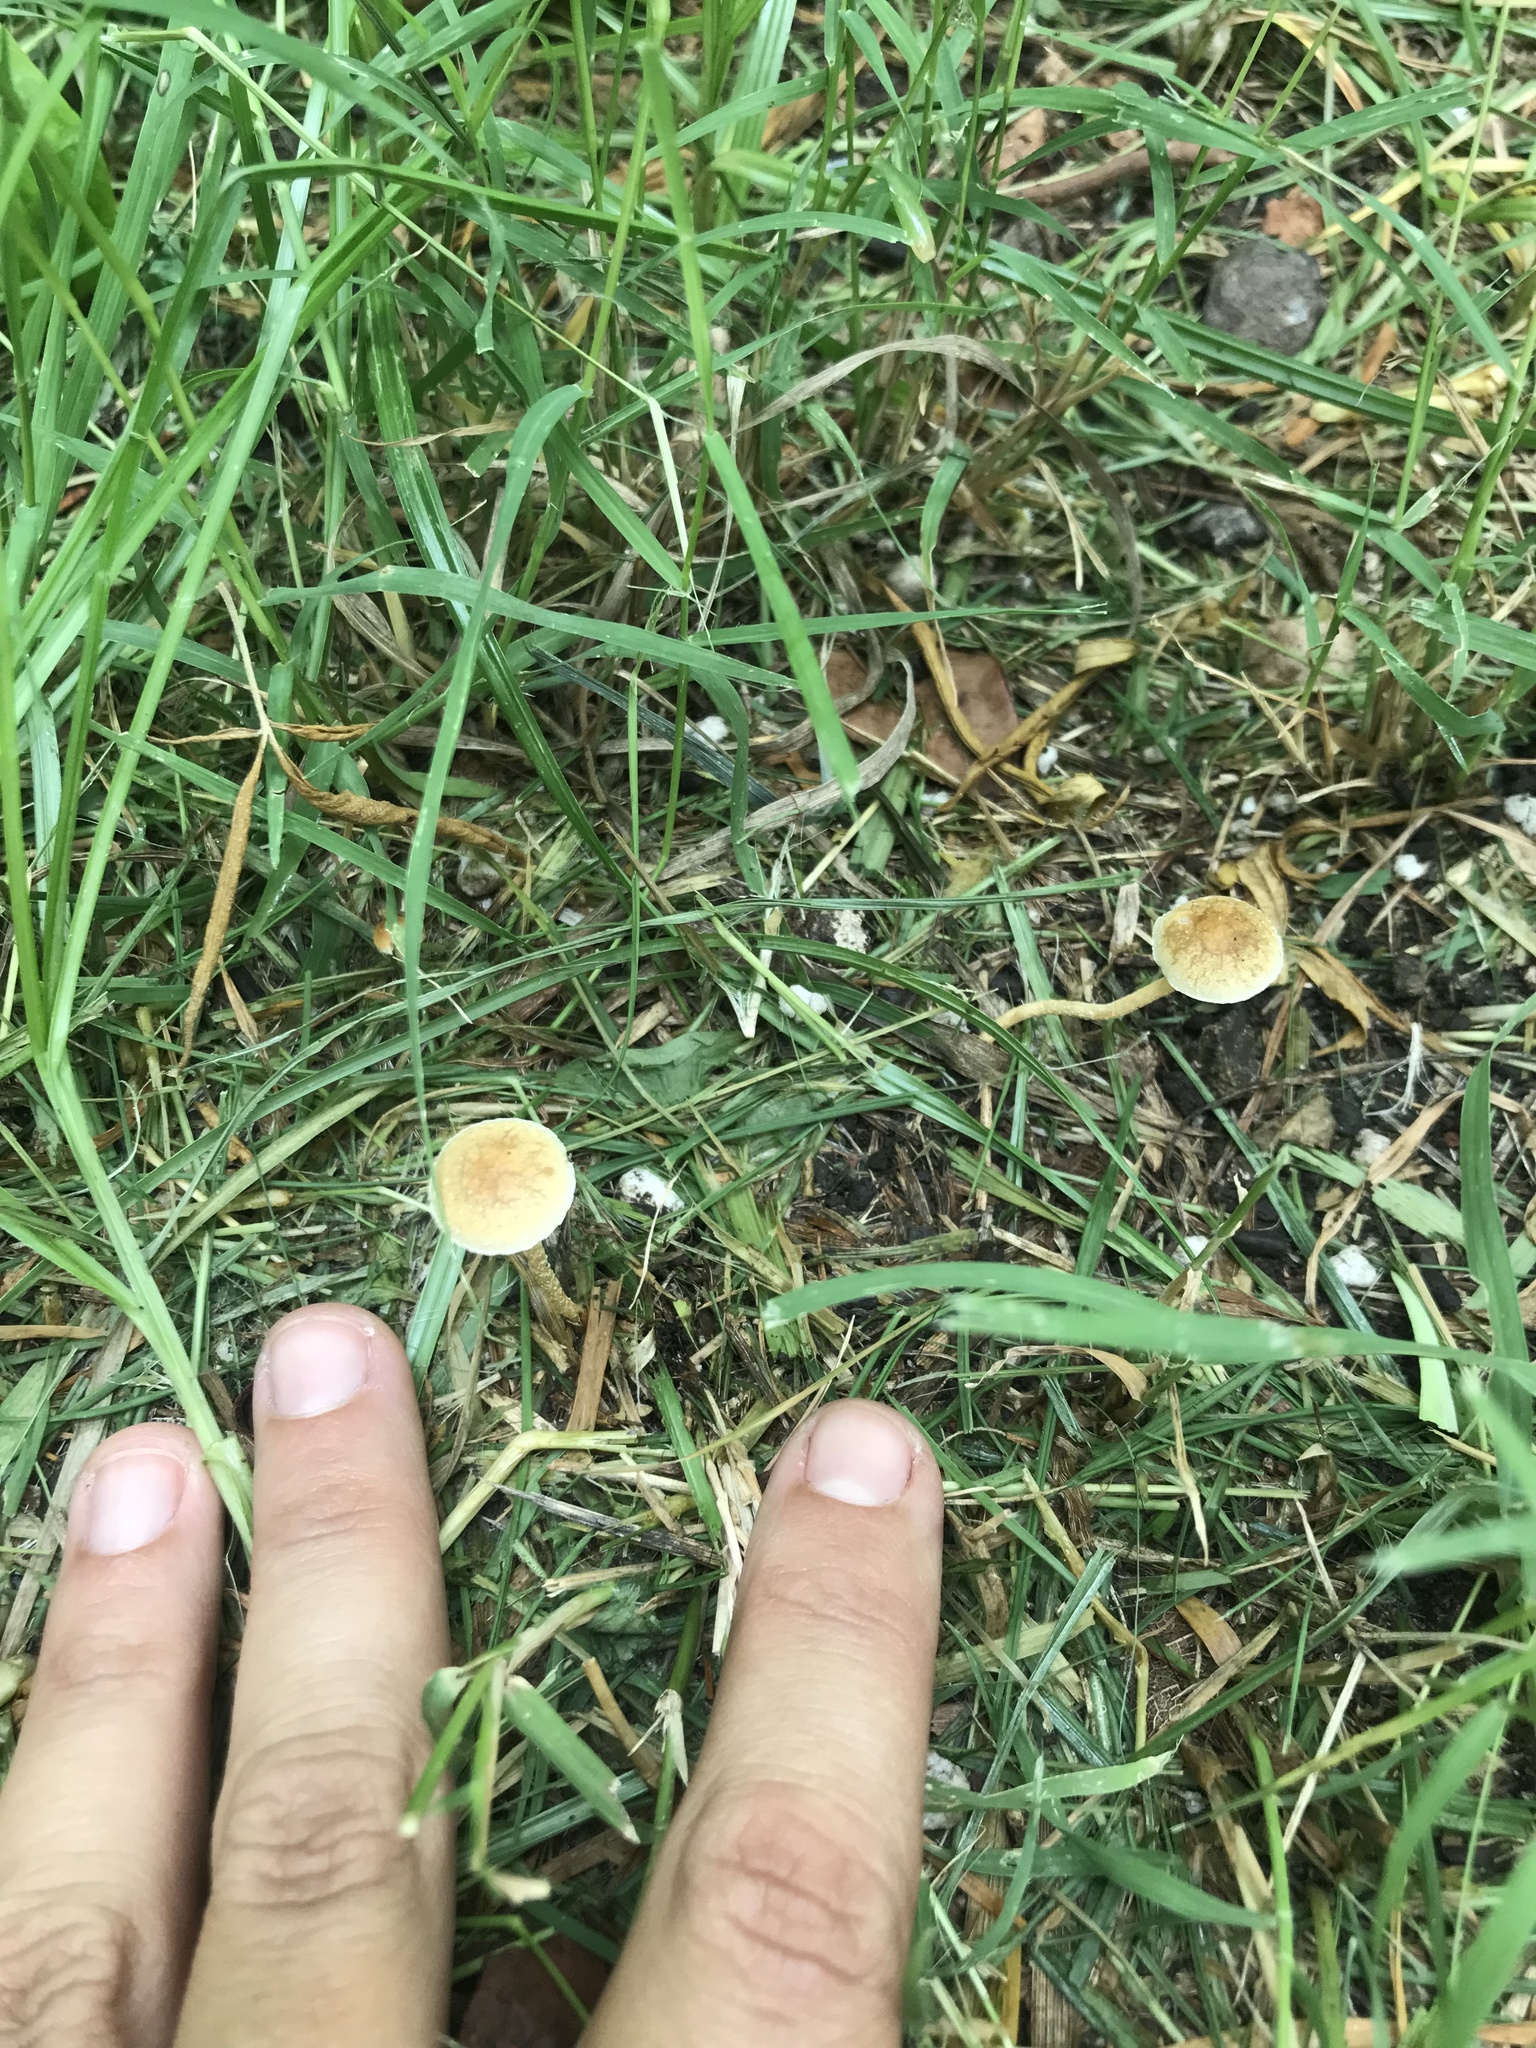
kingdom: Fungi
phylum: Basidiomycota
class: Agaricomycetes
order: Agaricales
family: Strophariaceae
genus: Agrocybe
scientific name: Agrocybe pediades
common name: Common fieldcap
